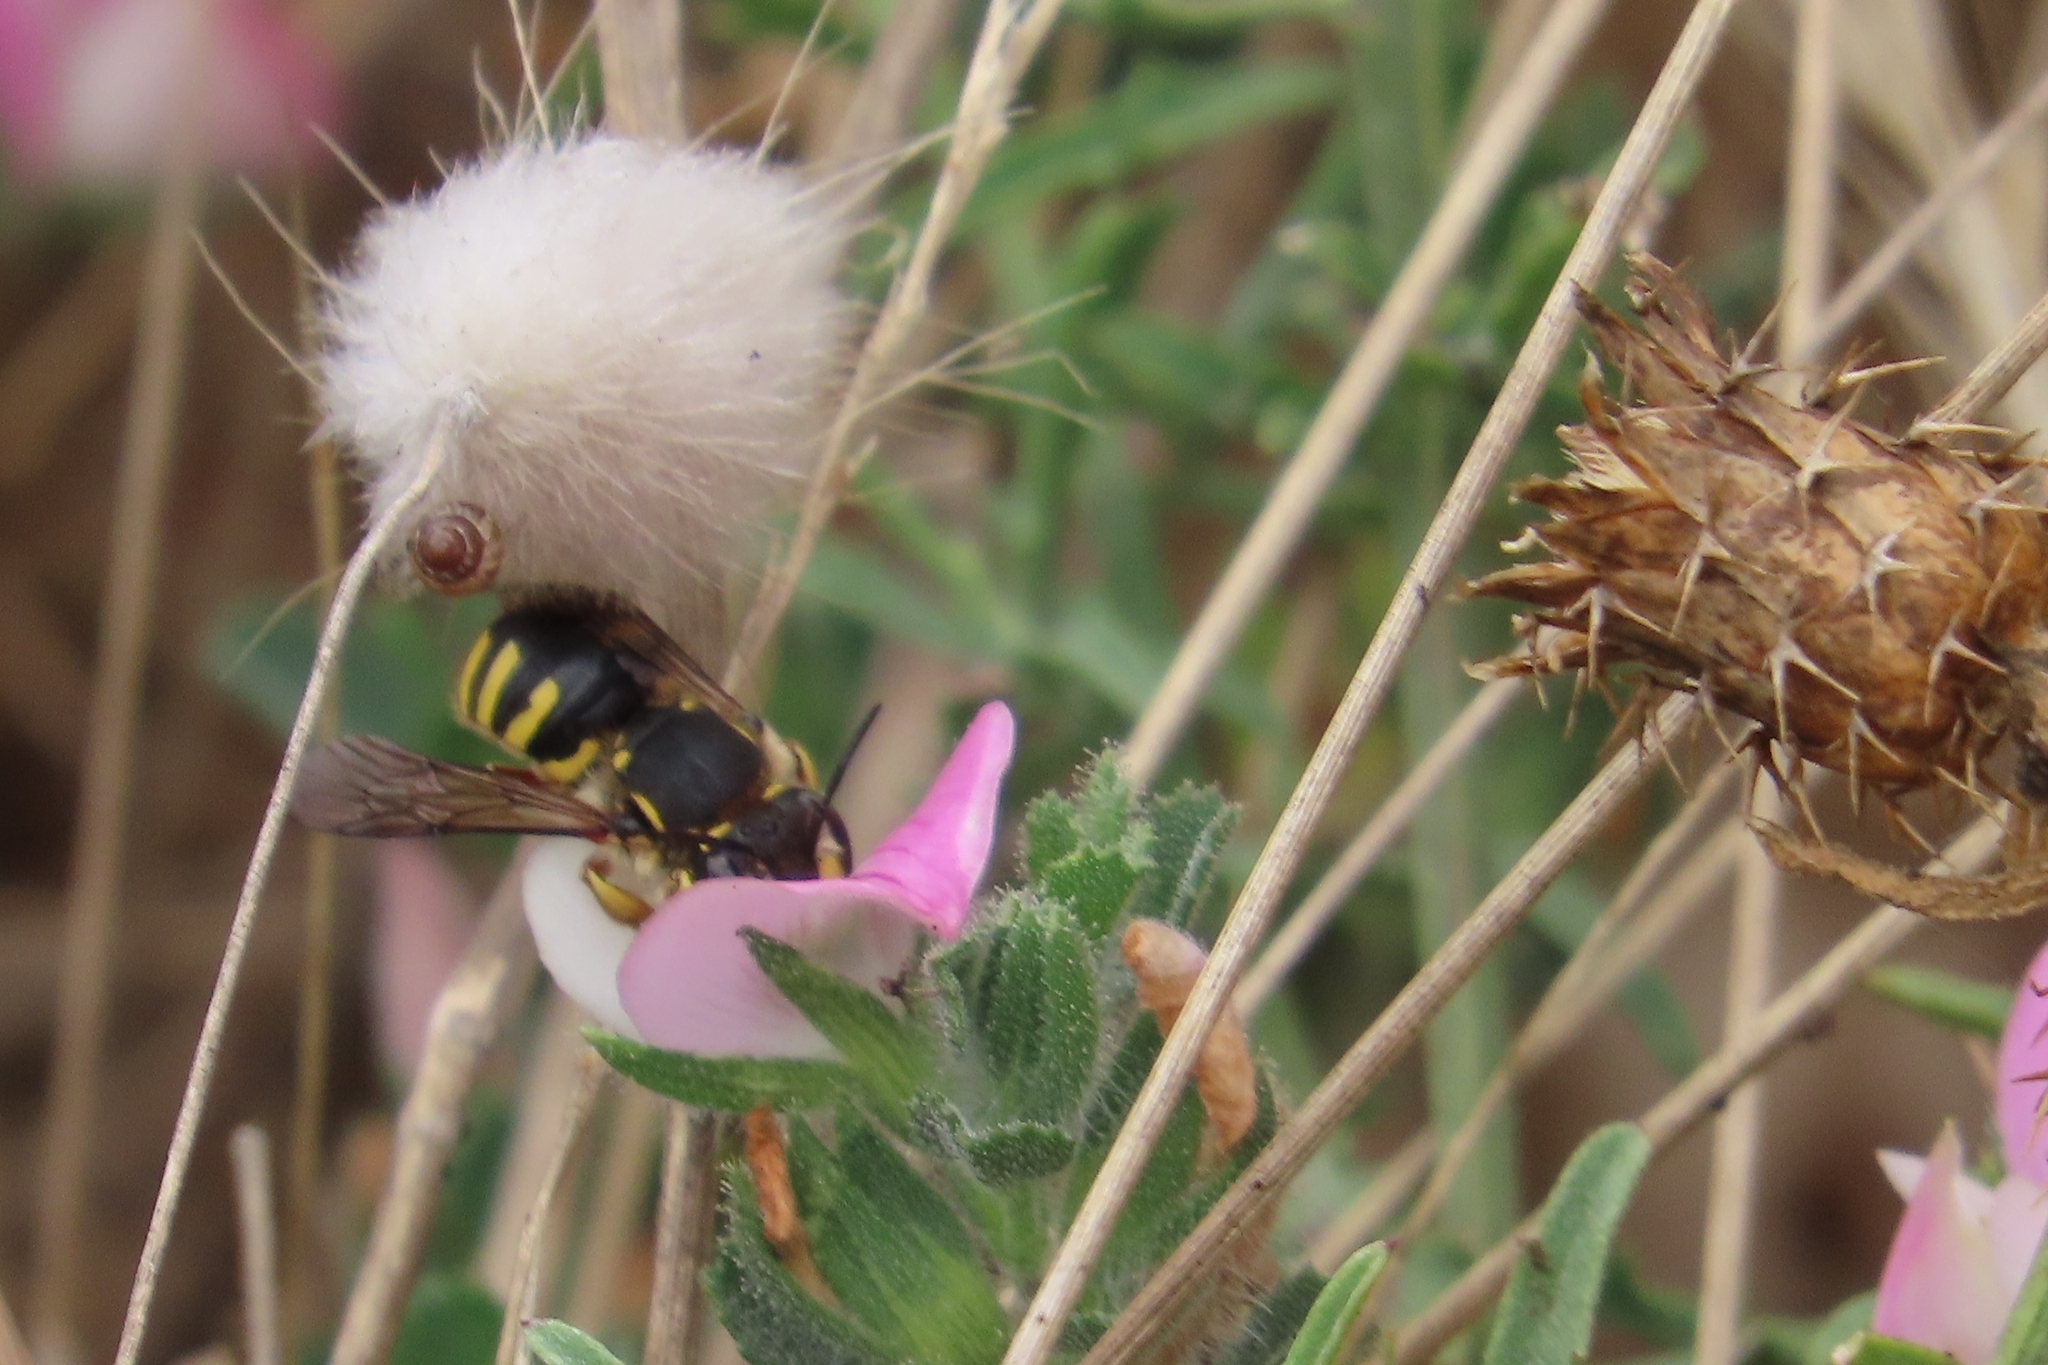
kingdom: Animalia
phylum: Arthropoda
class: Insecta
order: Hymenoptera
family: Megachilidae
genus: Anthidium
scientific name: Anthidium manicatum
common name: Wool carder bee
